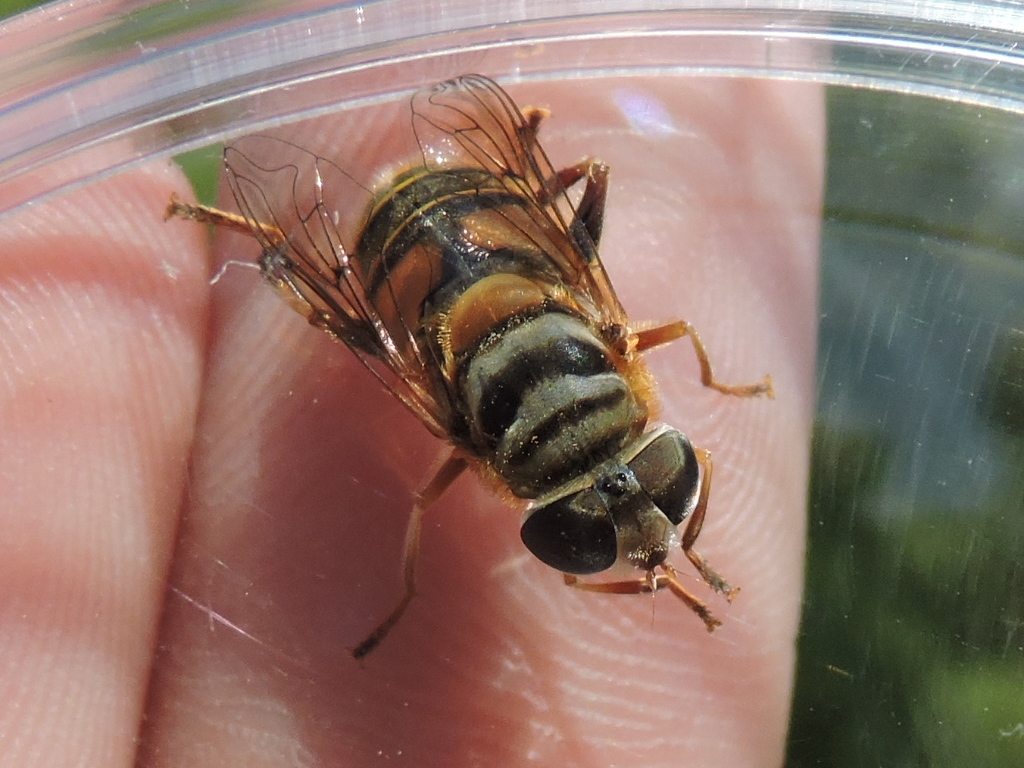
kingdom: Animalia
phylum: Arthropoda
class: Insecta
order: Diptera
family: Syrphidae
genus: Palpada
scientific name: Palpada vinetorum
